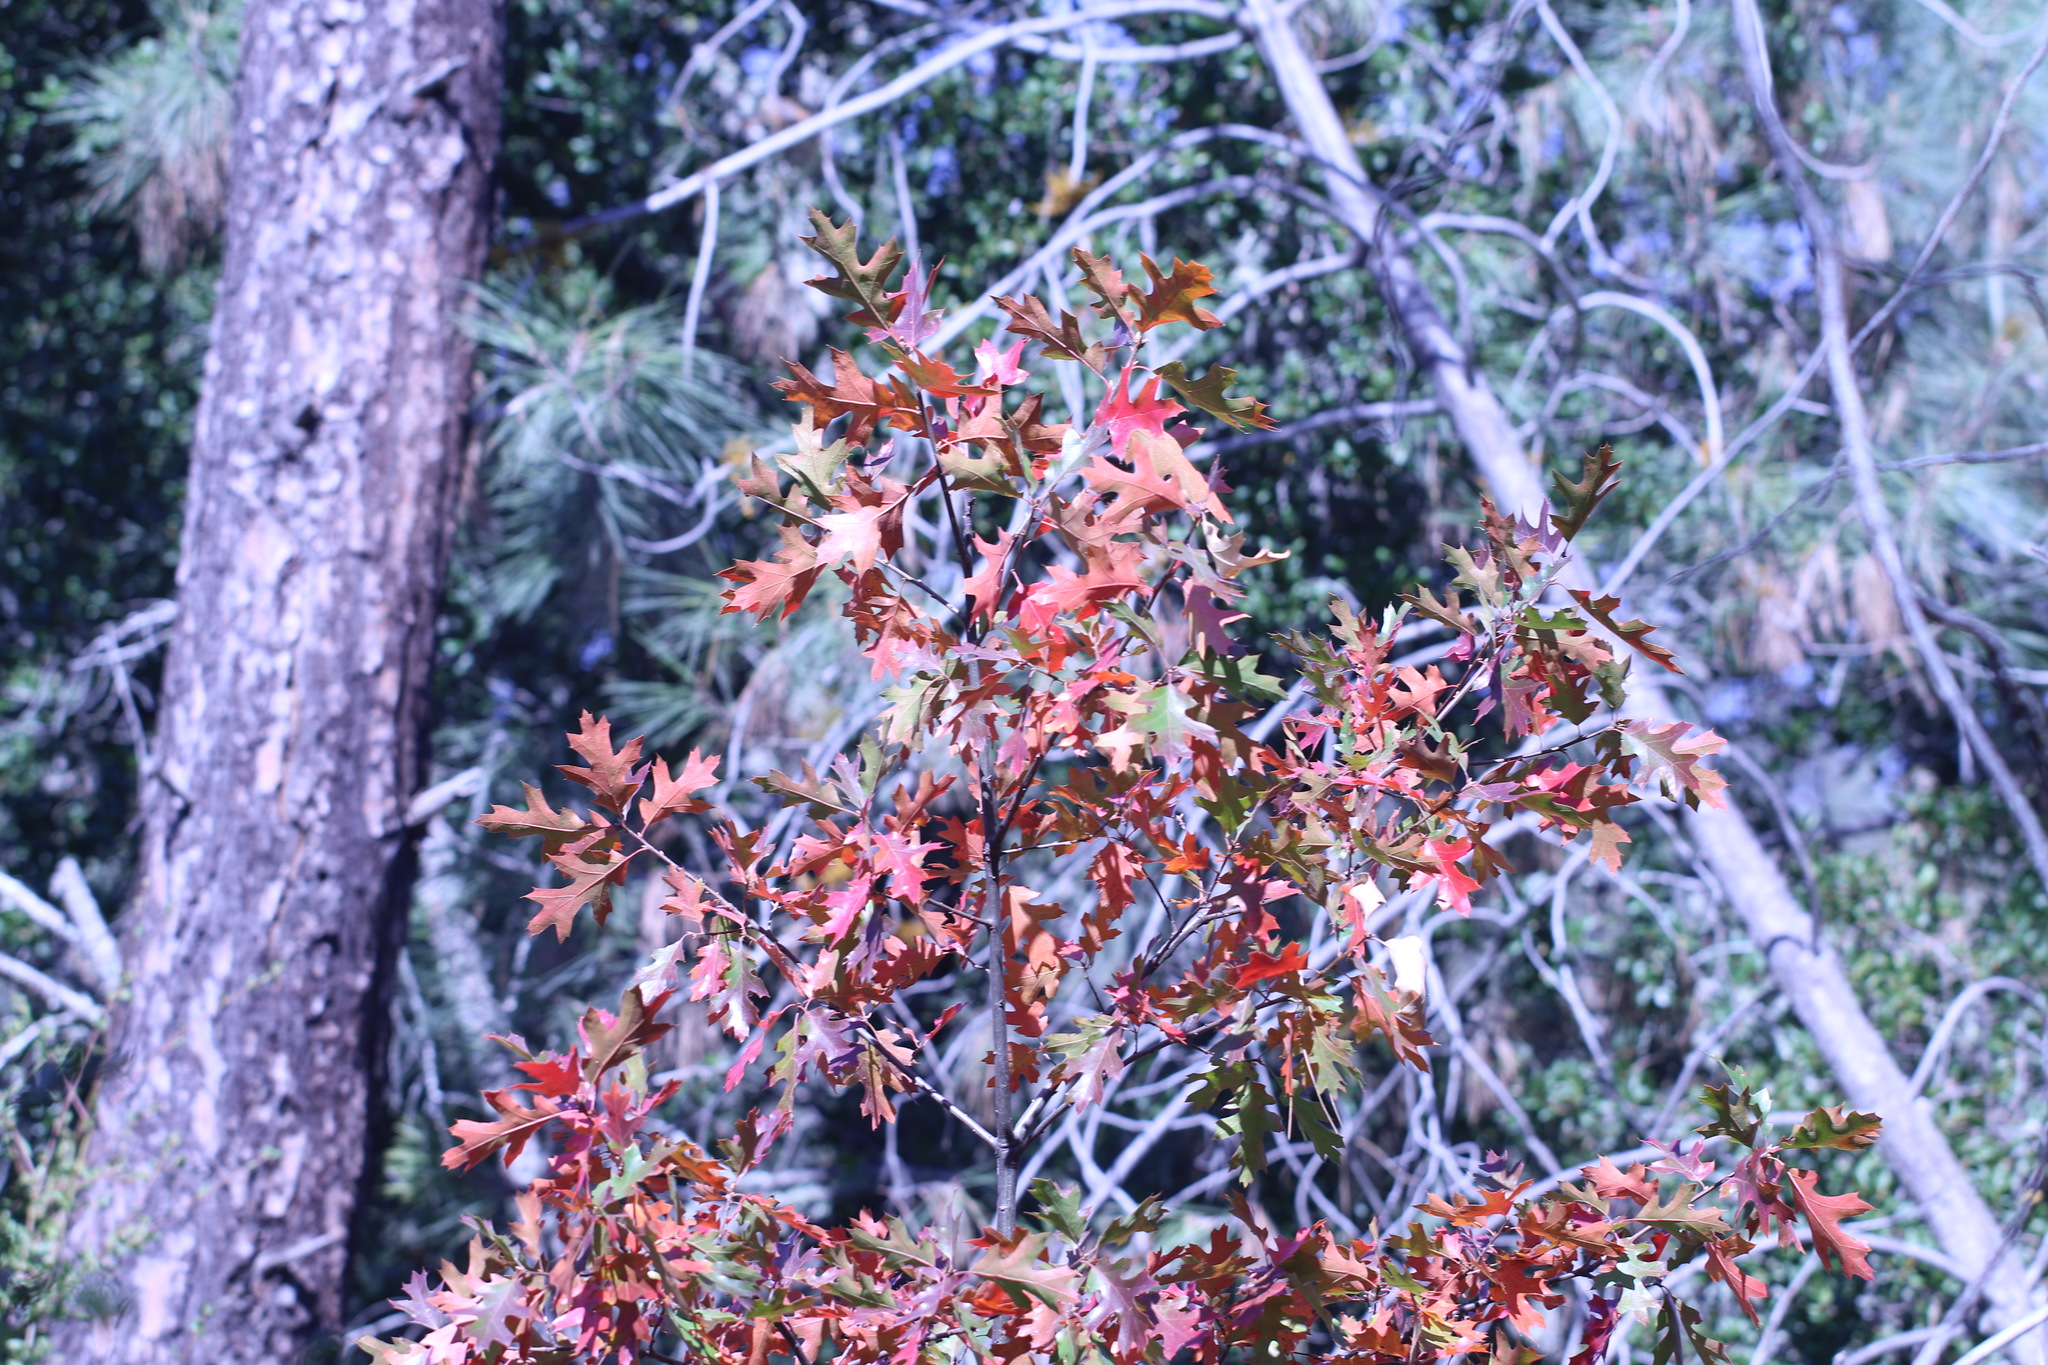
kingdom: Plantae
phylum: Tracheophyta
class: Magnoliopsida
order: Fagales
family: Fagaceae
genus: Quercus
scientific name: Quercus kelloggii
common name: California black oak
